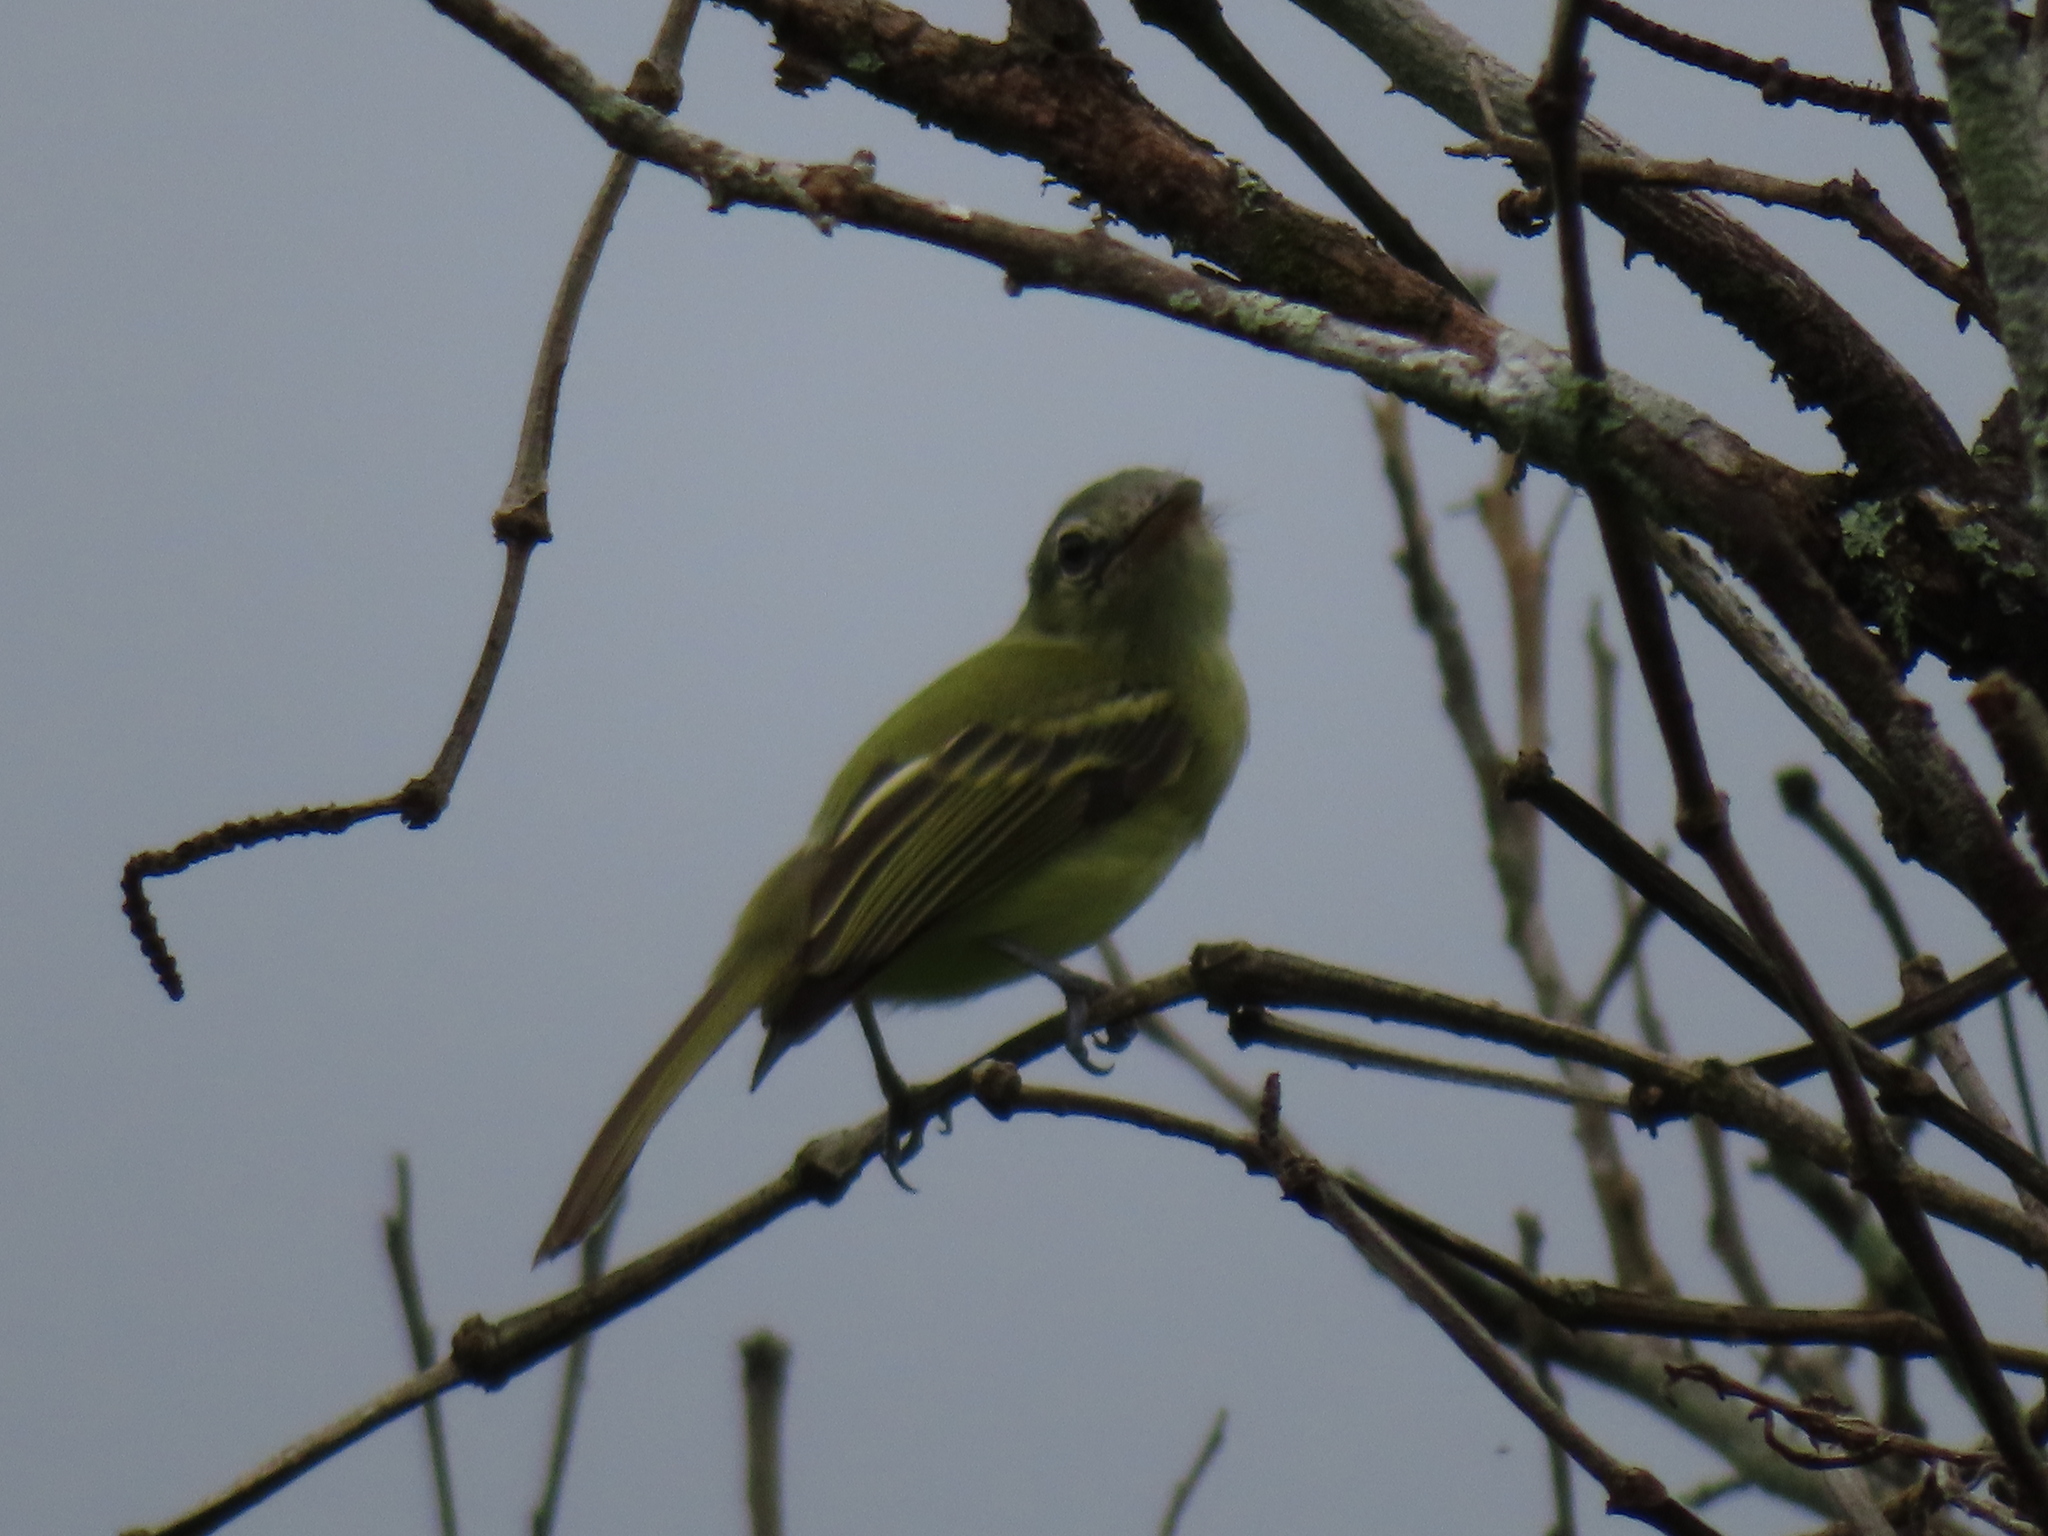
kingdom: Animalia
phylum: Chordata
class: Aves
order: Passeriformes
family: Tyrannidae
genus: Tolmomyias
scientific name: Tolmomyias sulphurescens
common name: Yellow-olive flycatcher
